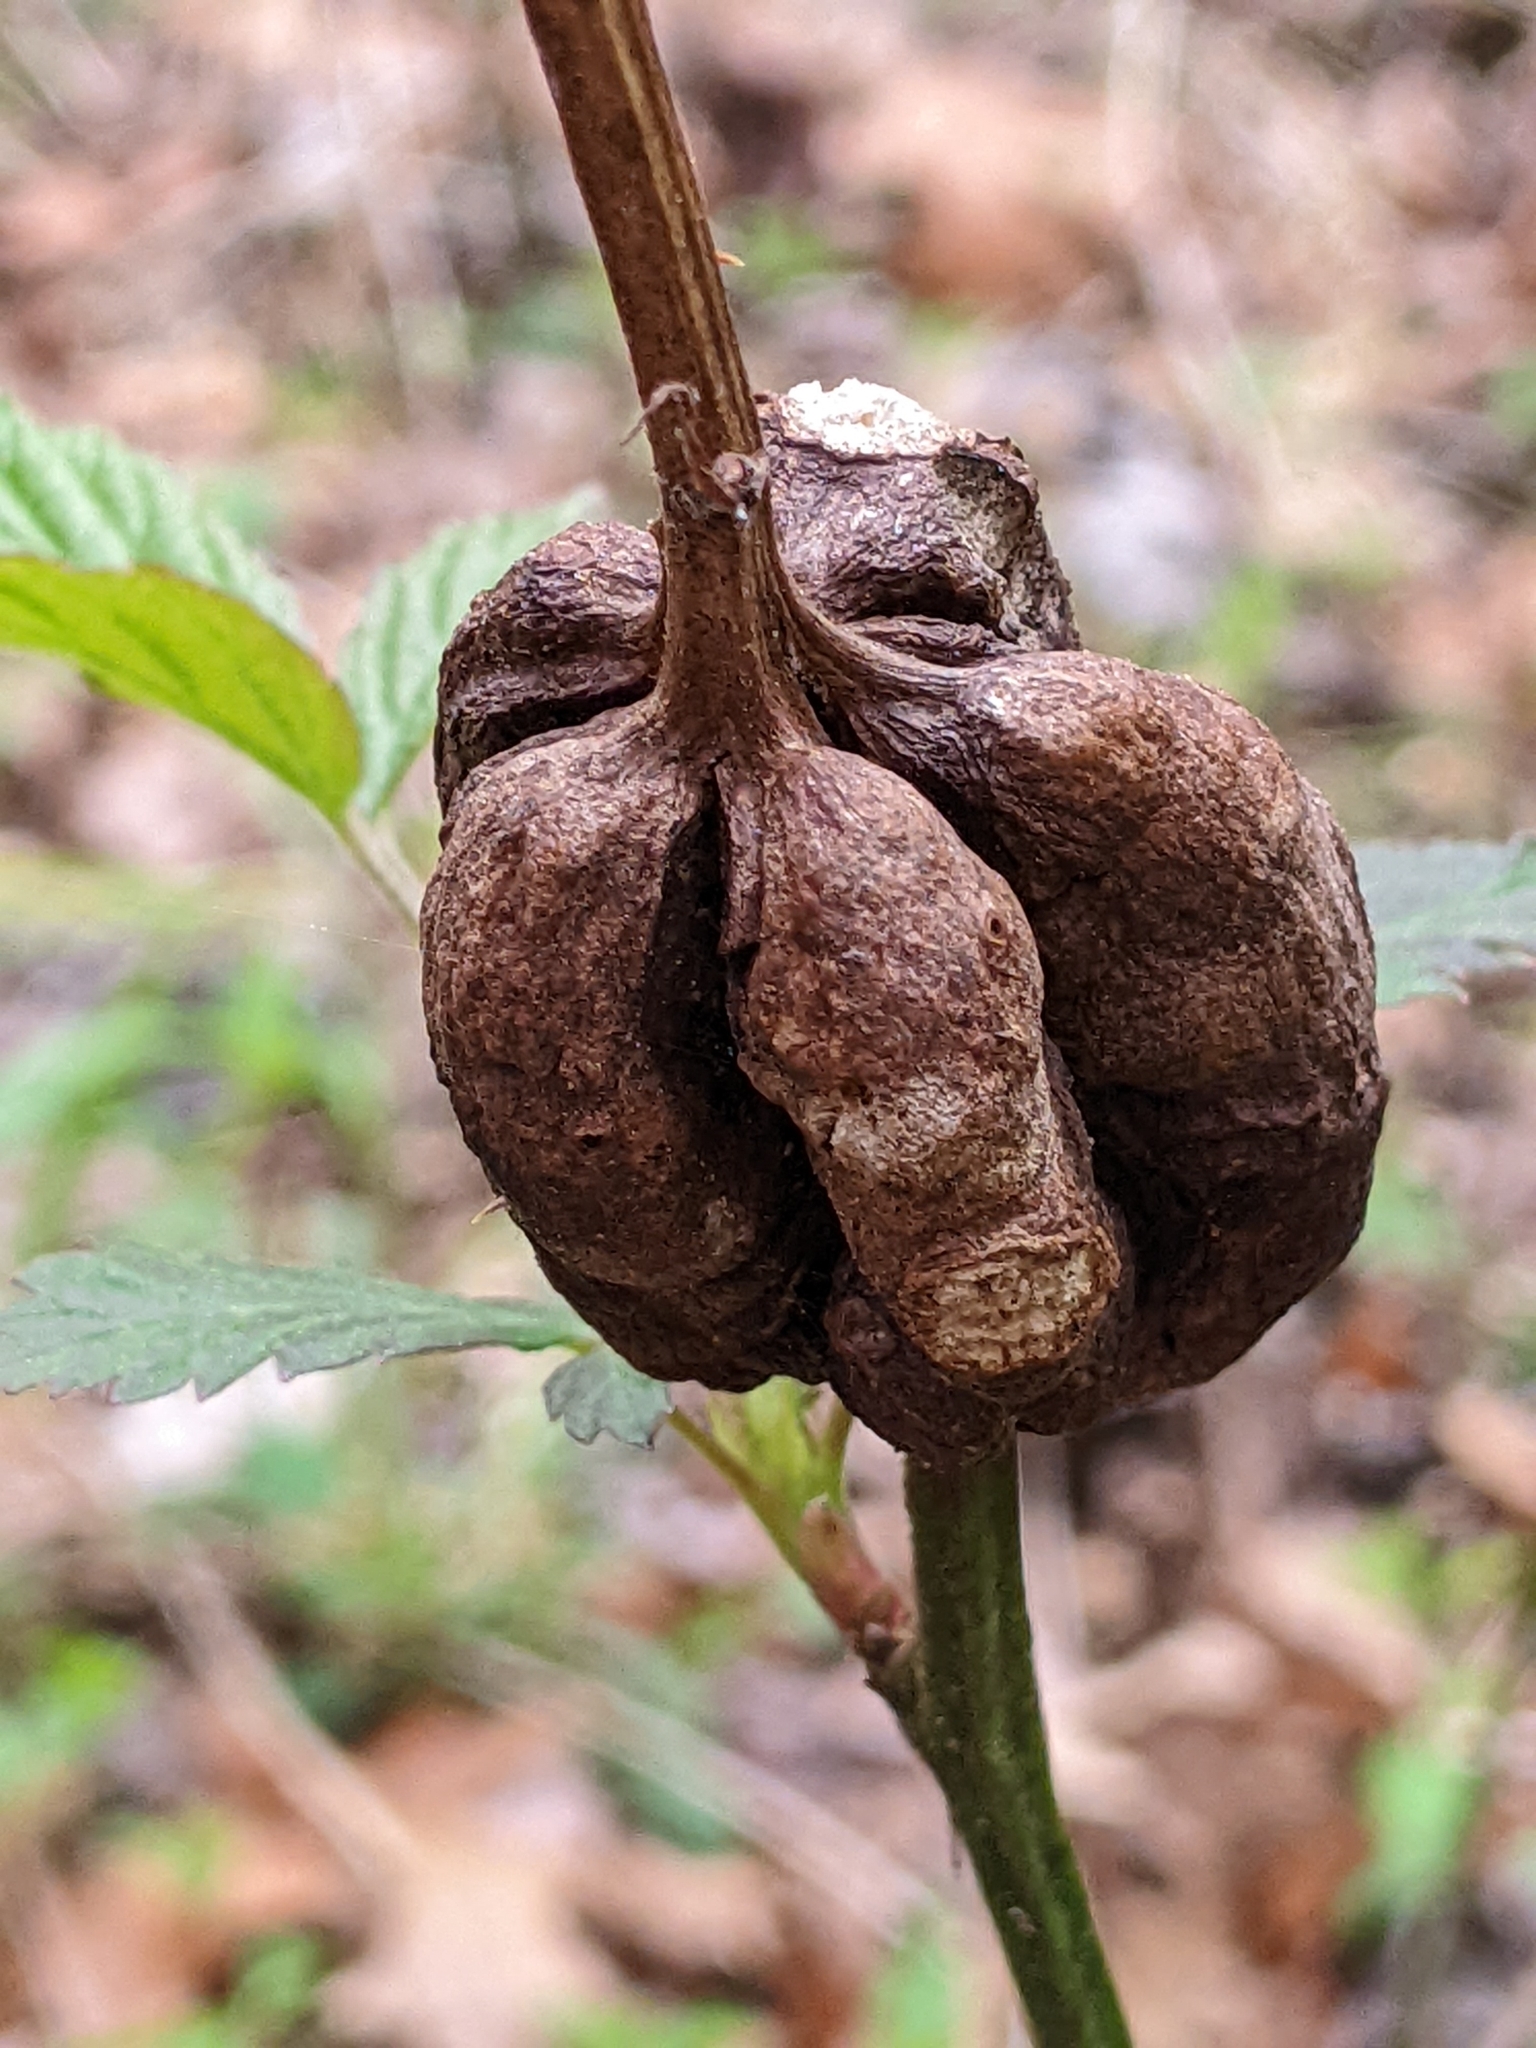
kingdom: Animalia
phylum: Arthropoda
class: Insecta
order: Hymenoptera
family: Cynipidae
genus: Diastrophus
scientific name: Diastrophus
